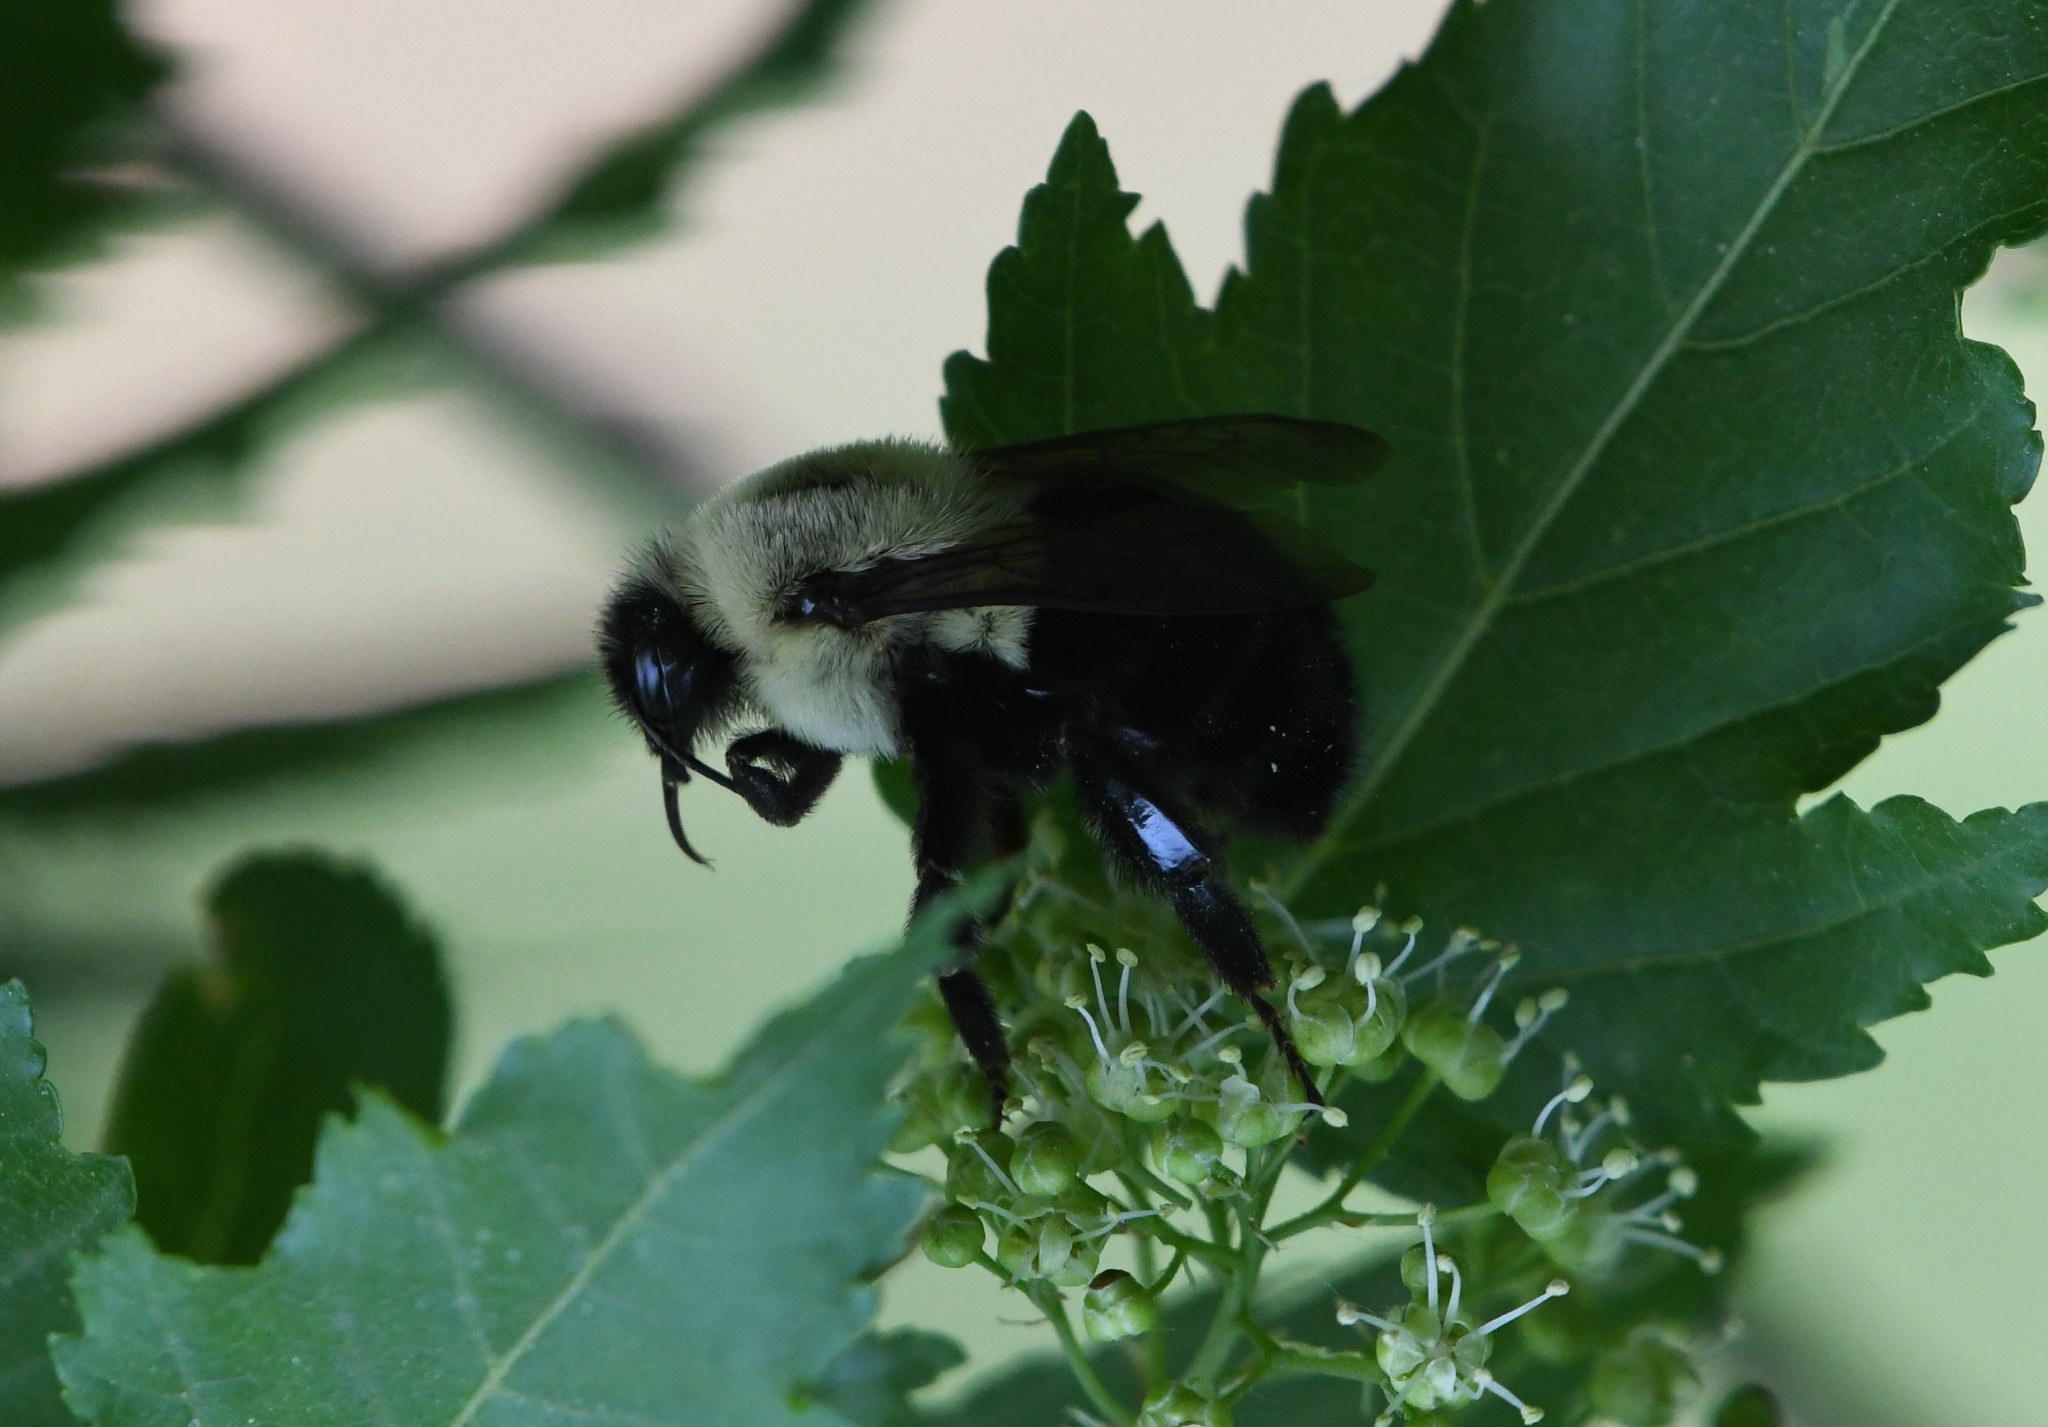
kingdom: Animalia
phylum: Arthropoda
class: Insecta
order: Hymenoptera
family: Apidae
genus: Bombus
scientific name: Bombus impatiens
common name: Common eastern bumble bee
